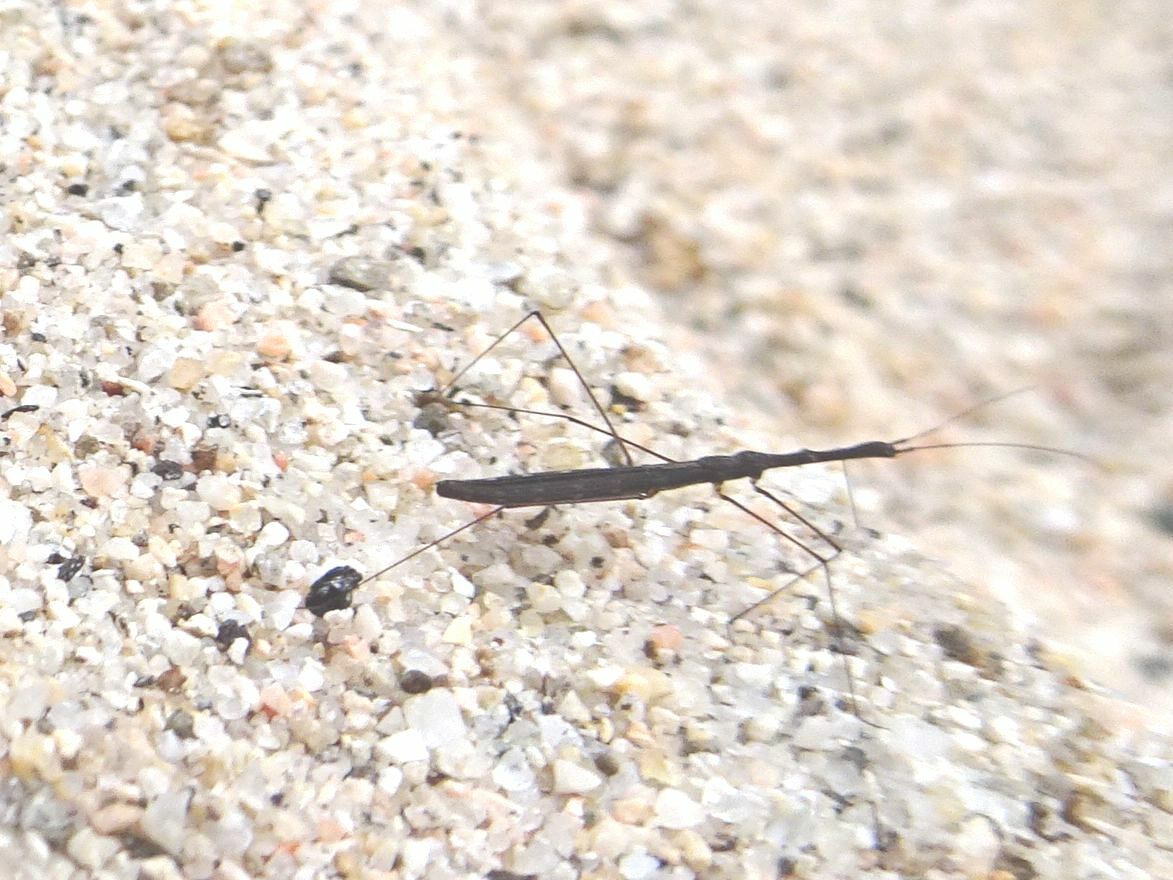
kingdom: Animalia
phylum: Arthropoda
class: Insecta
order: Hemiptera
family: Hydrometridae
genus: Hydrometra
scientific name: Hydrometra stagnorum
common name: Water measurer
